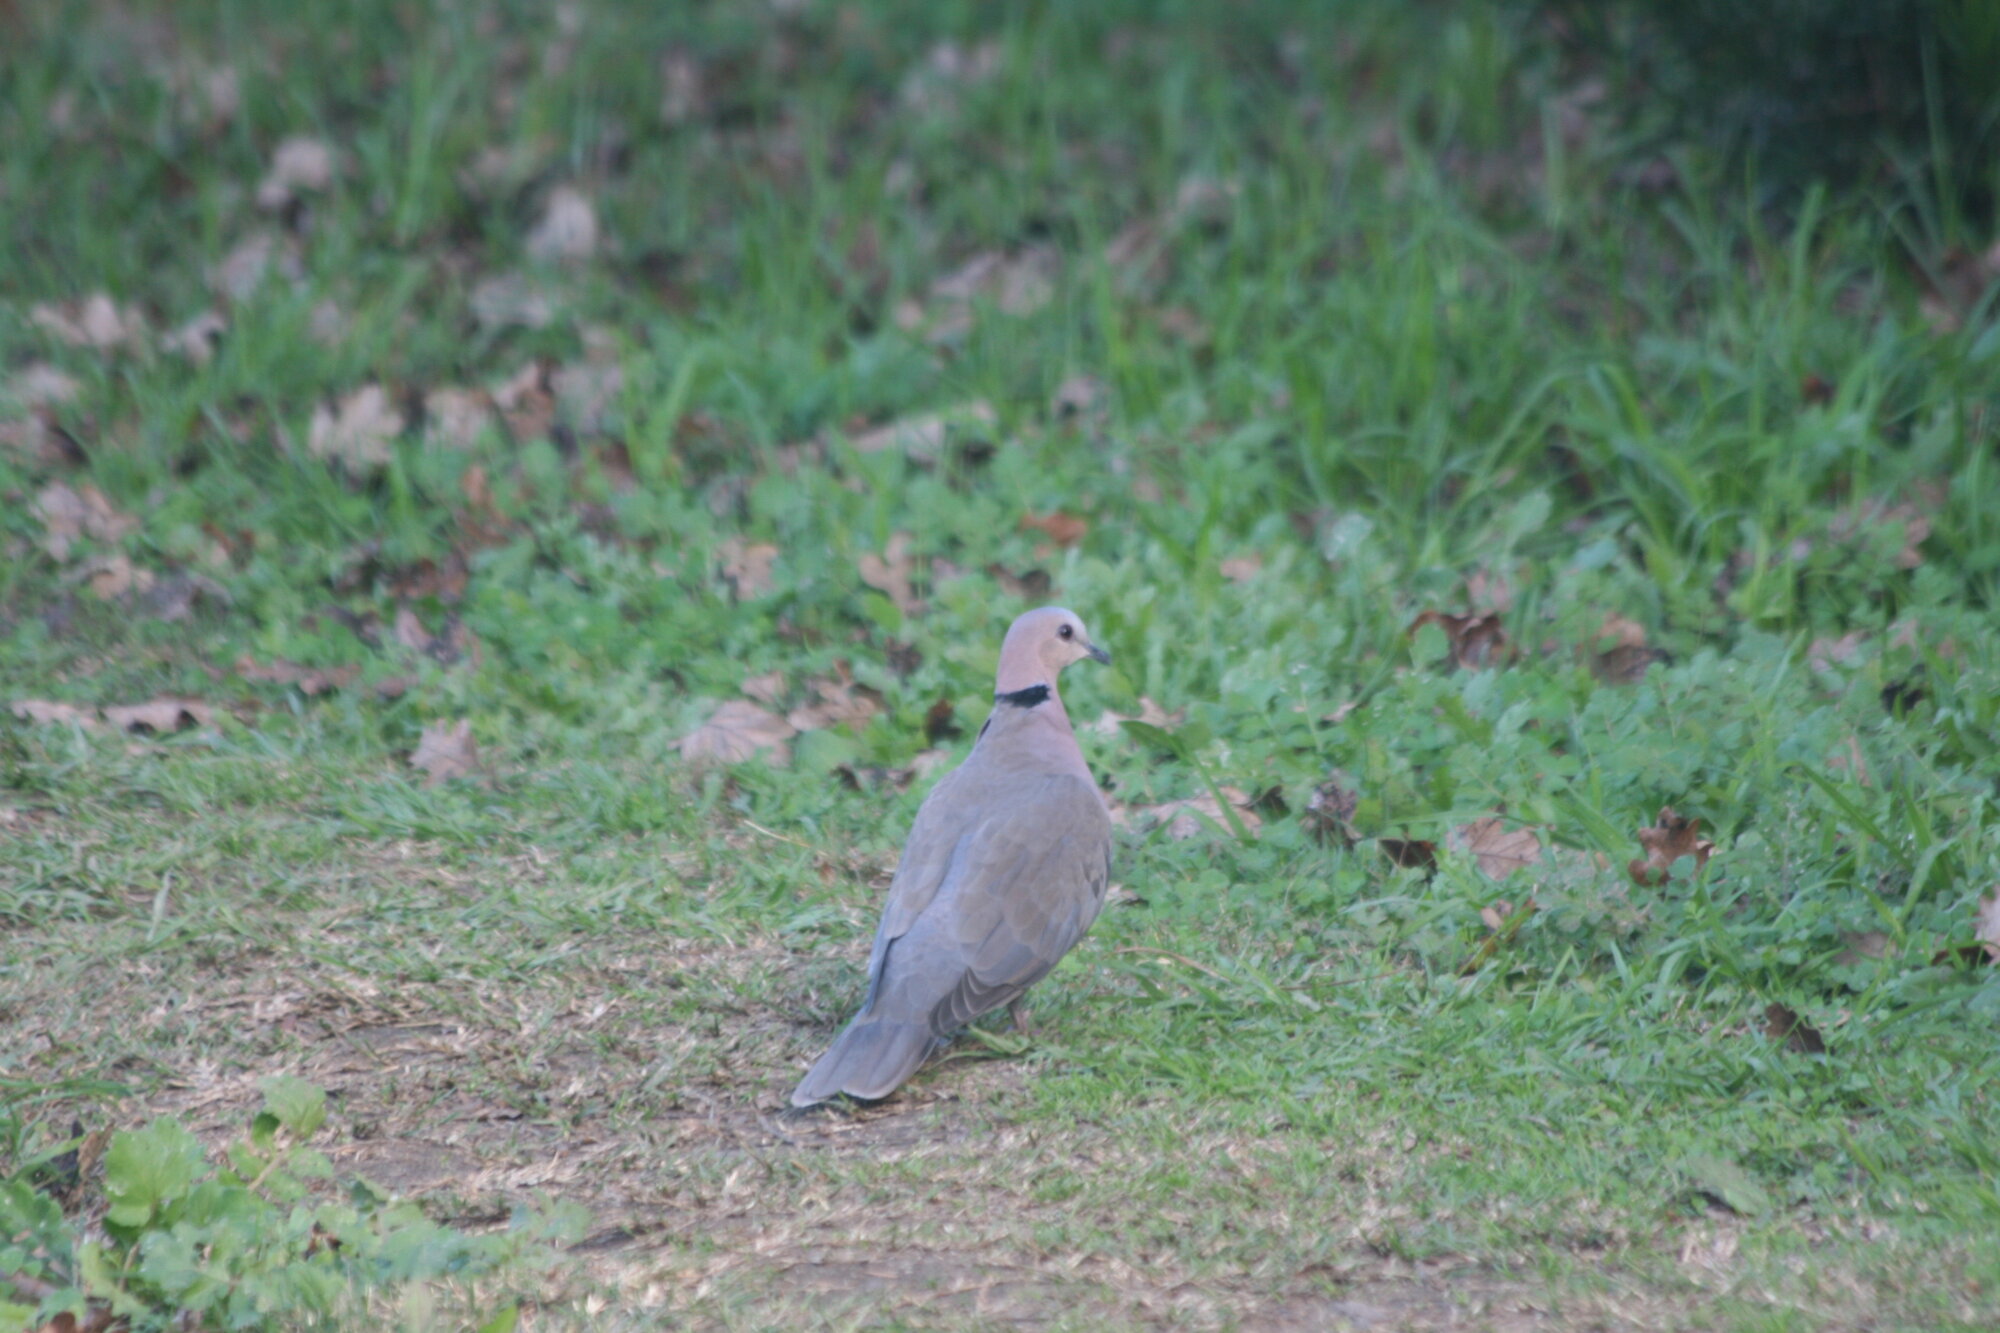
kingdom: Animalia
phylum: Chordata
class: Aves
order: Columbiformes
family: Columbidae
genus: Streptopelia
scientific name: Streptopelia semitorquata
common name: Red-eyed dove
